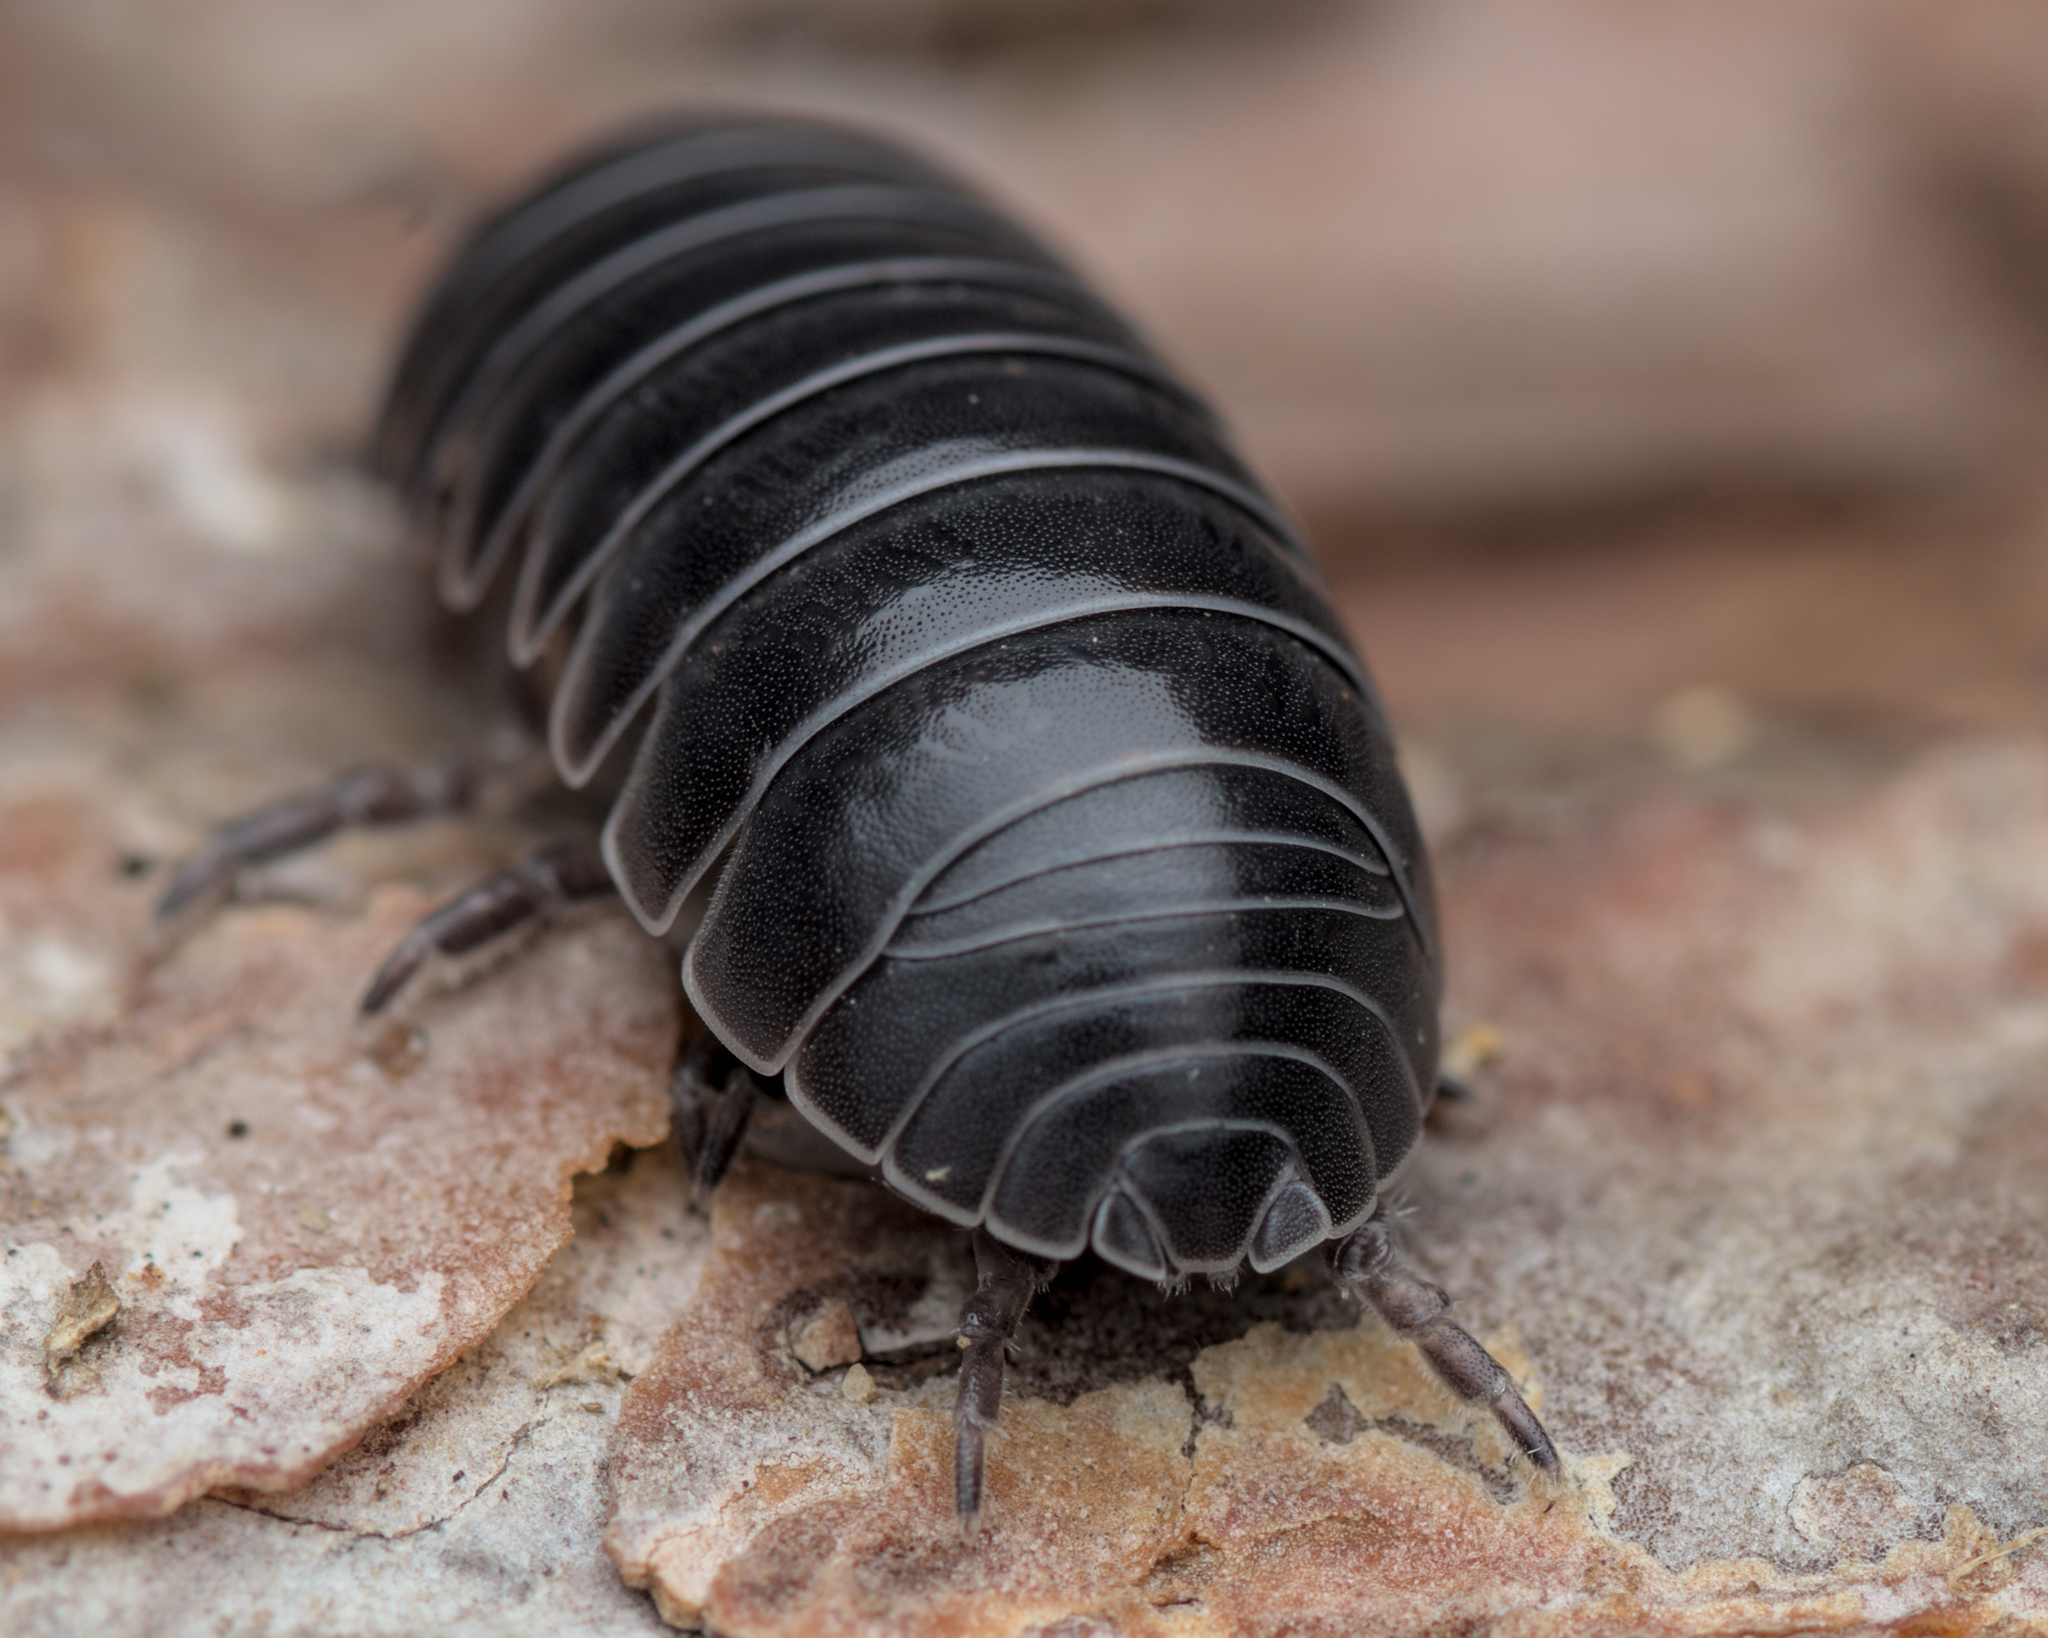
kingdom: Animalia
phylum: Arthropoda
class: Malacostraca
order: Isopoda
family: Armadillidiidae
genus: Armadillidium
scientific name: Armadillidium vulgare
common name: Common pill woodlouse
